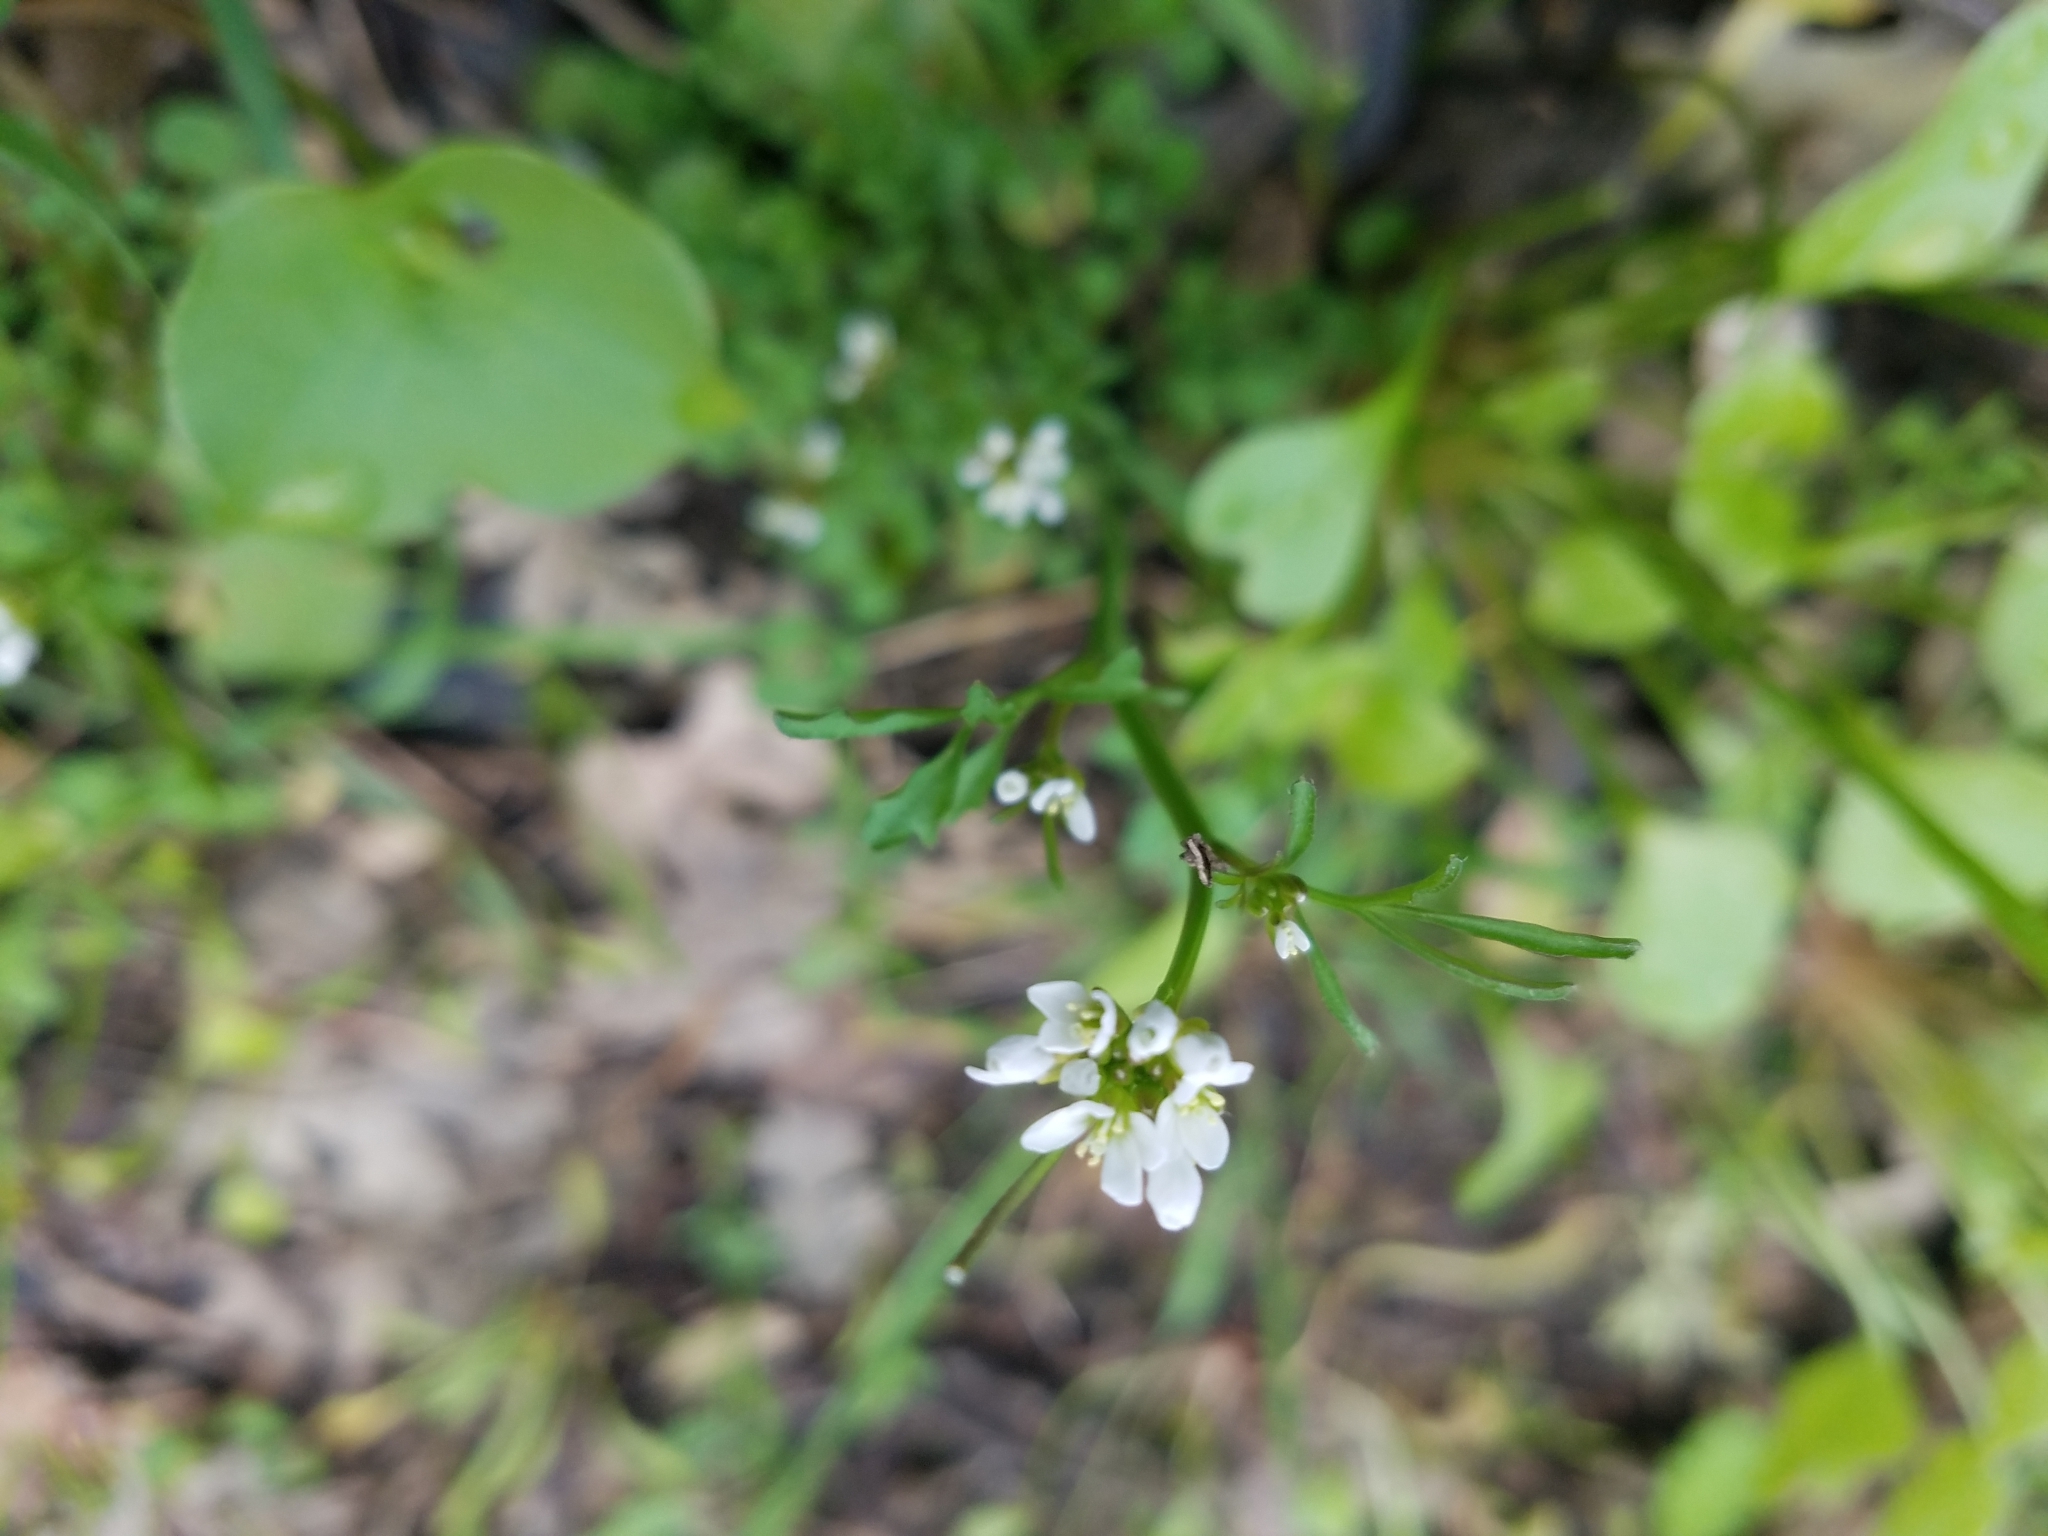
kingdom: Plantae
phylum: Tracheophyta
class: Magnoliopsida
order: Brassicales
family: Brassicaceae
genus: Cardamine
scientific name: Cardamine hirsuta
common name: Hairy bittercress
